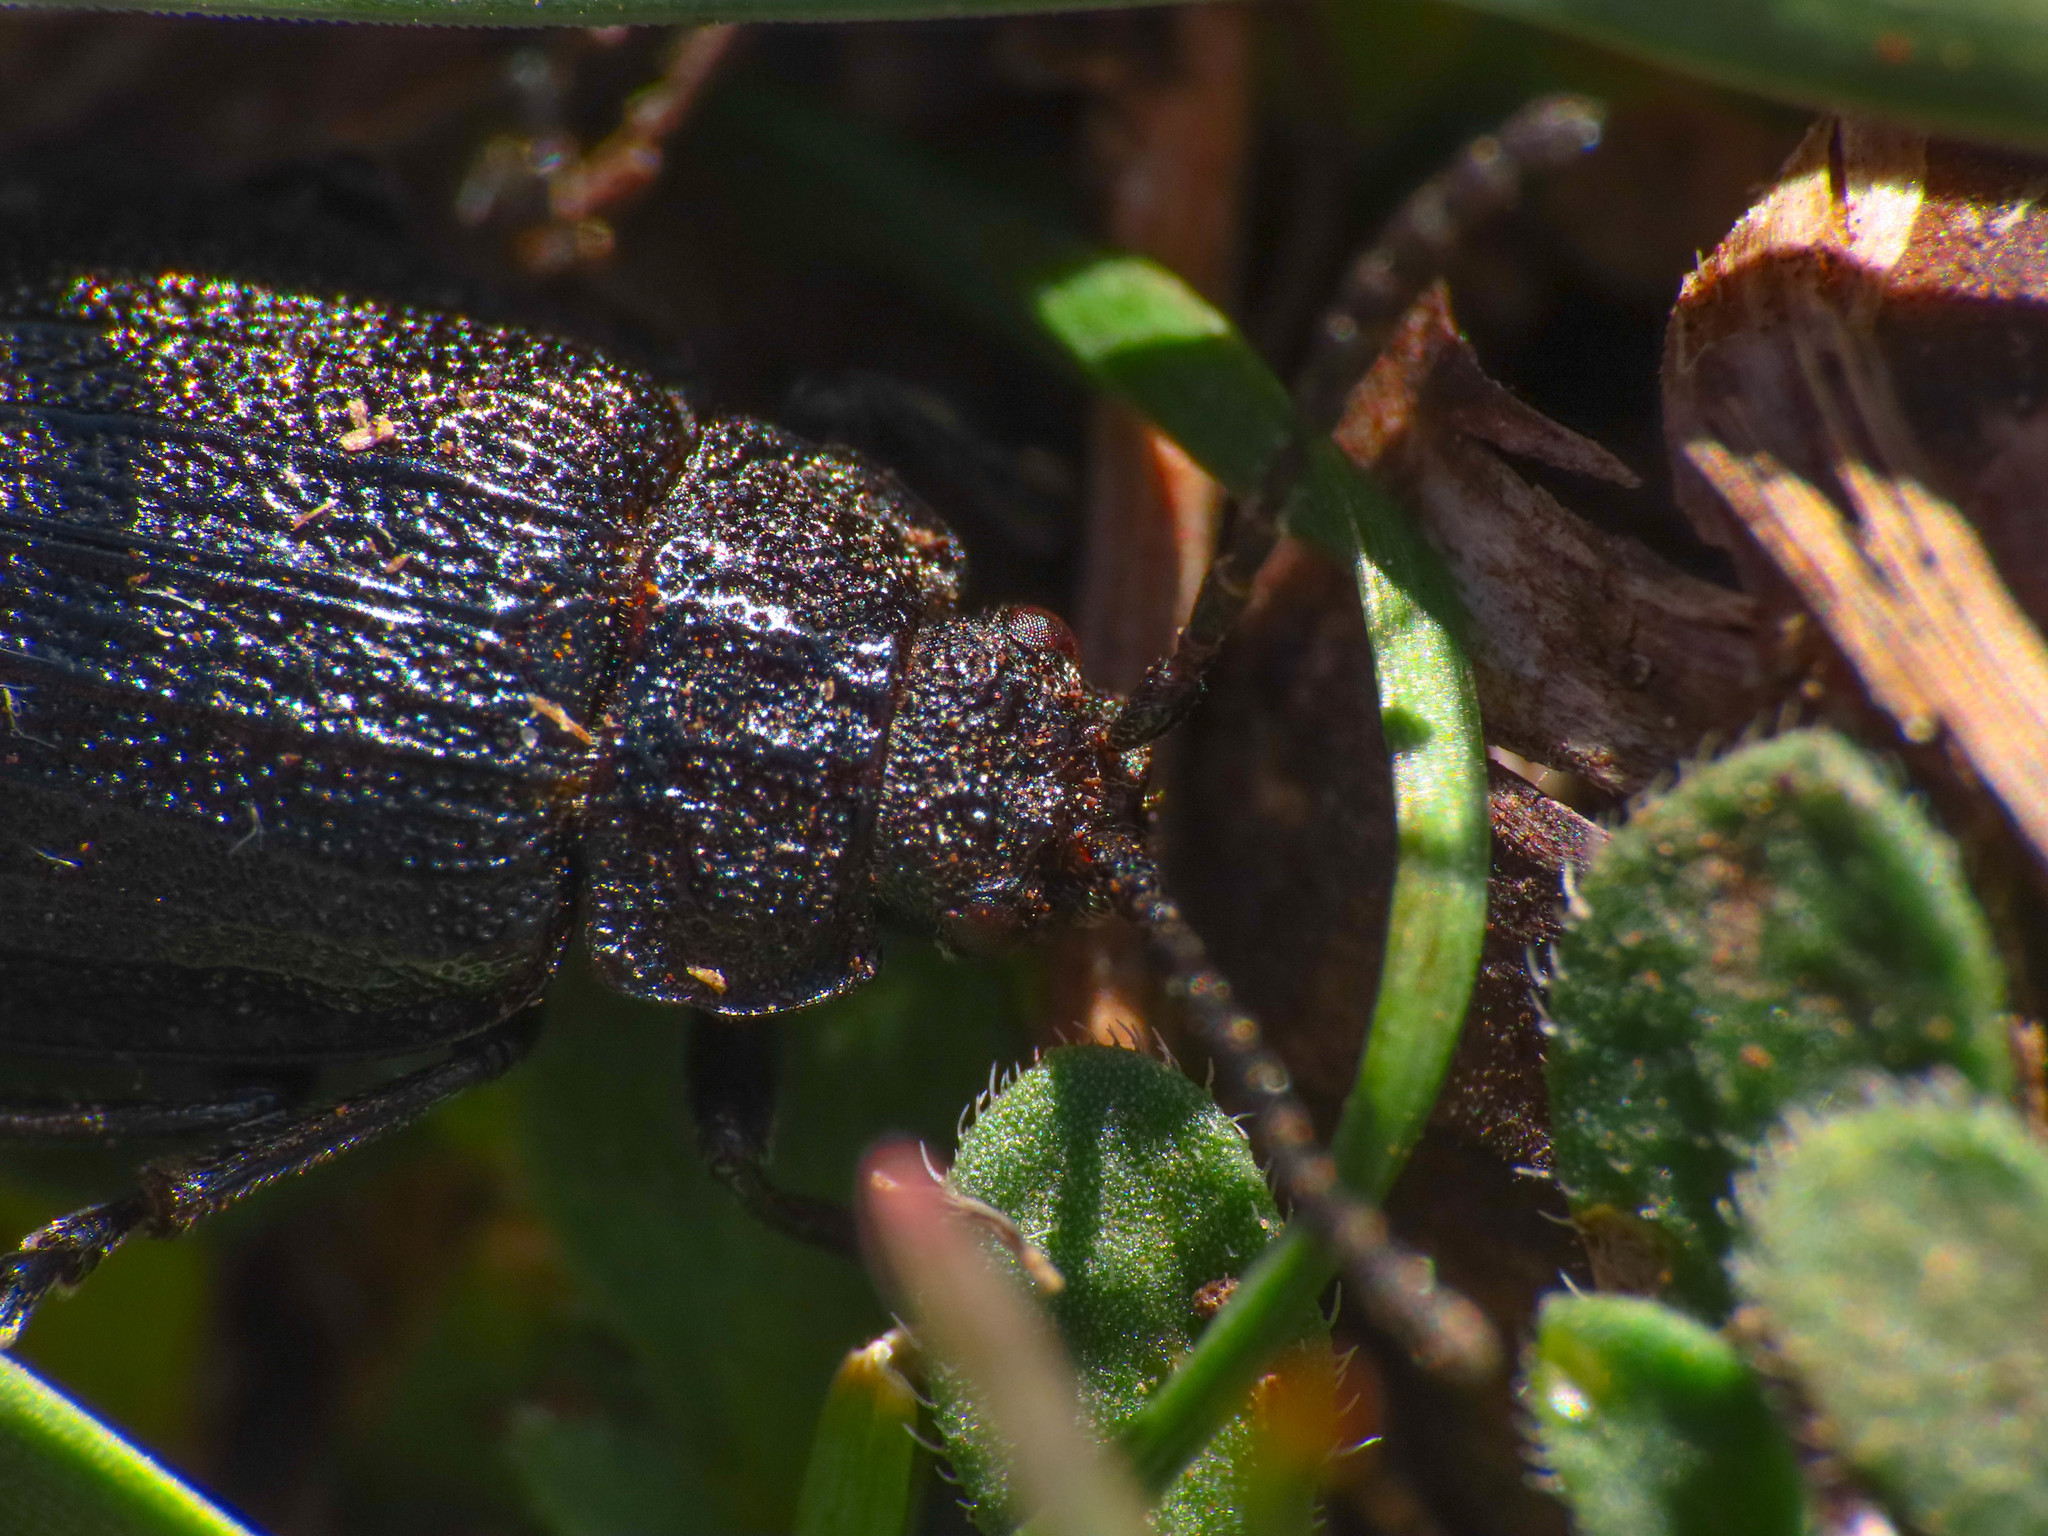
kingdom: Animalia
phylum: Arthropoda
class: Insecta
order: Coleoptera
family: Chrysomelidae
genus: Galeruca
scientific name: Galeruca tanaceti
